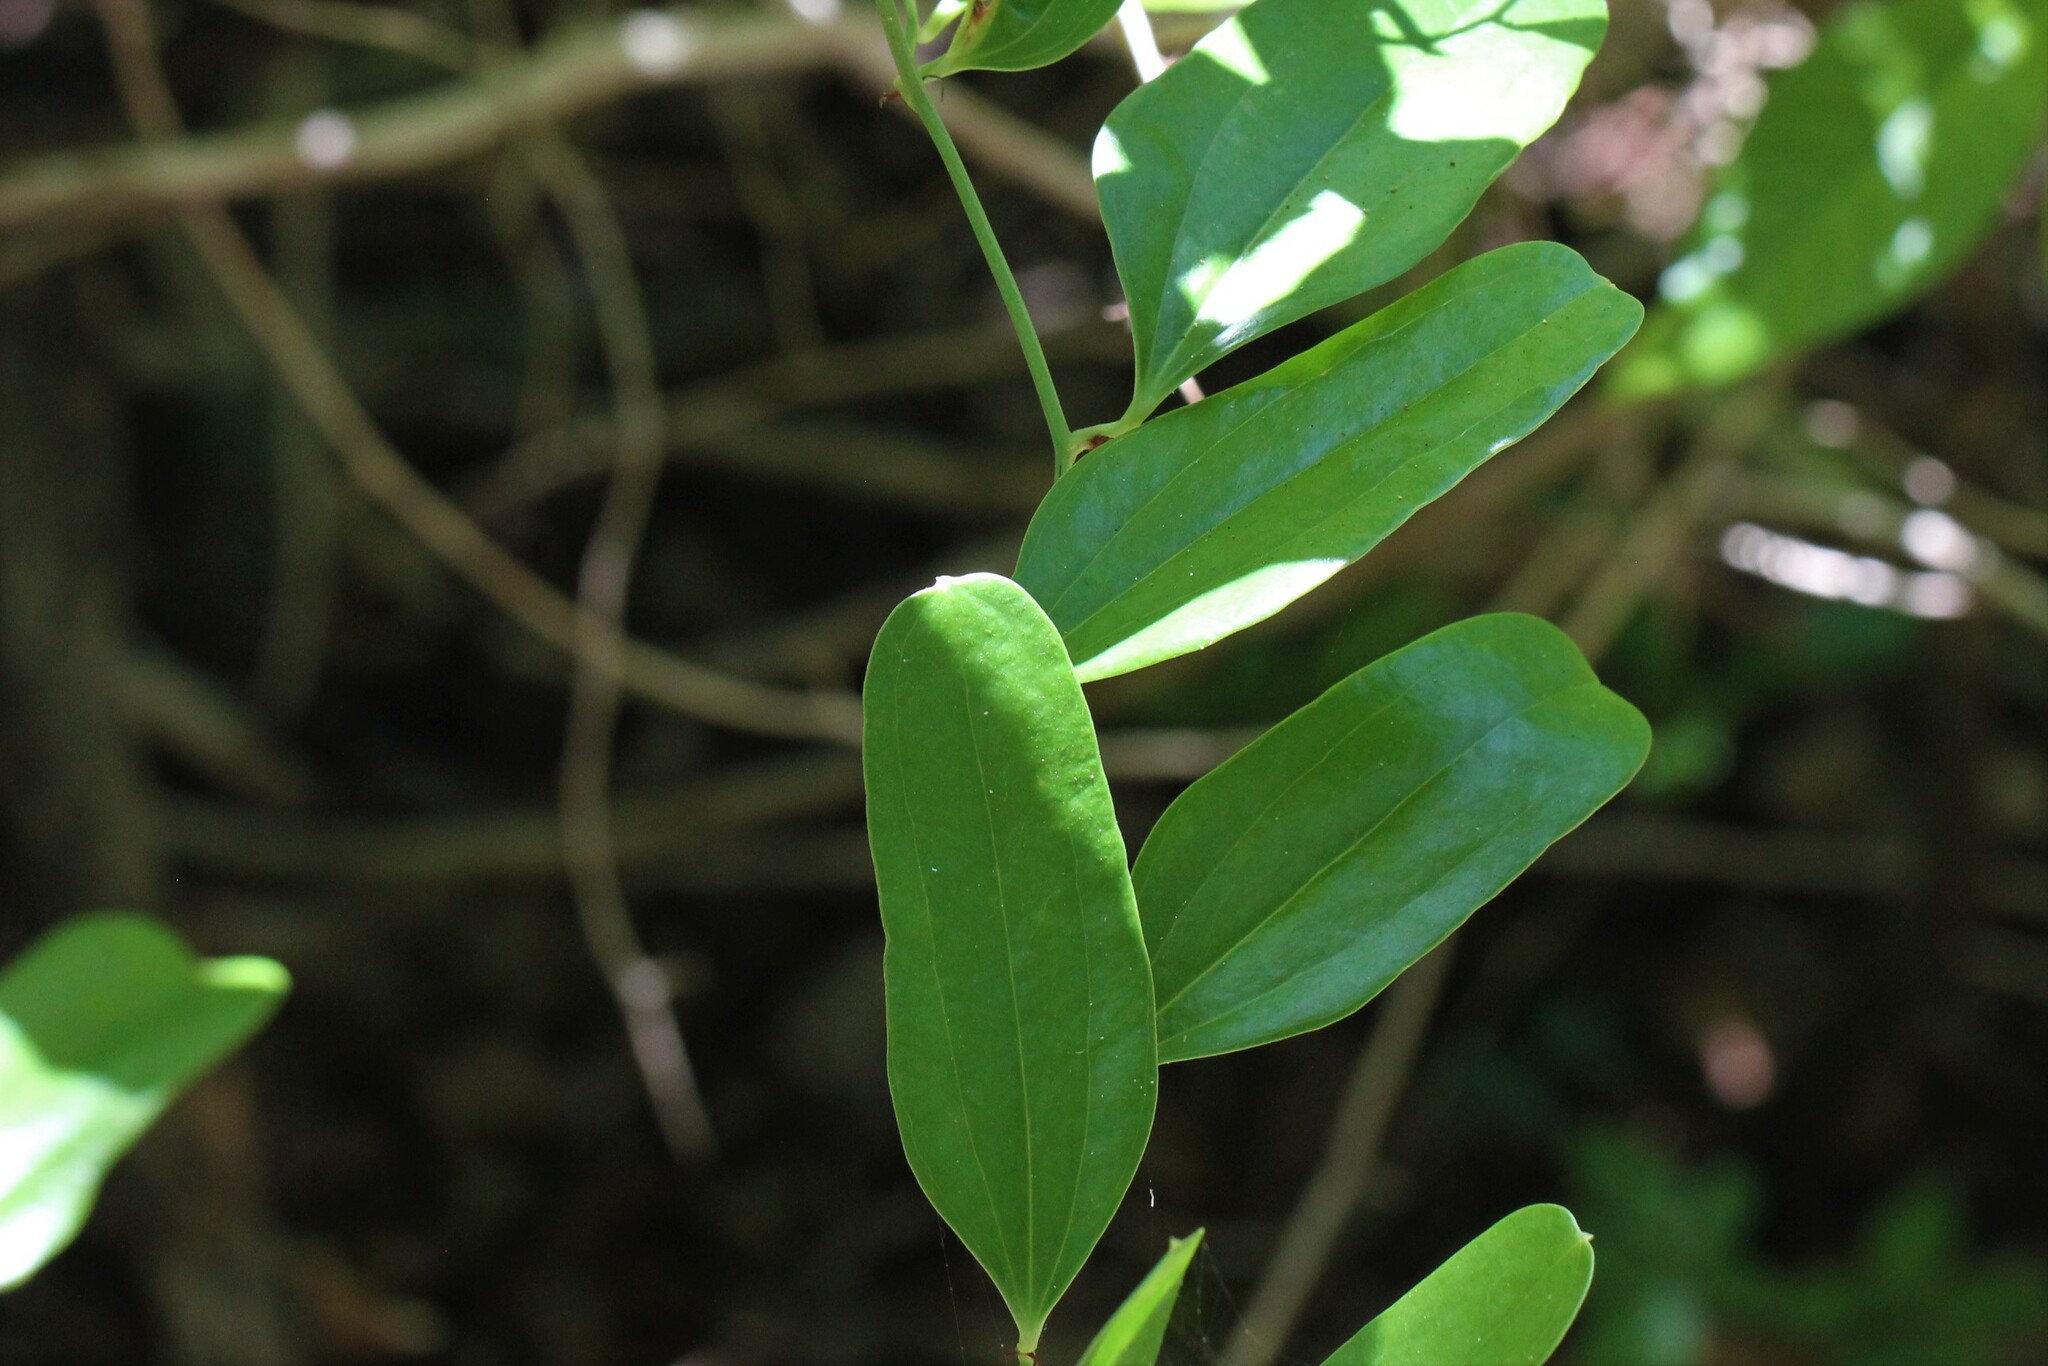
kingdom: Plantae
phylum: Tracheophyta
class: Liliopsida
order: Liliales
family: Smilacaceae
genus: Smilax
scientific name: Smilax auriculata
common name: Wild bamboo
